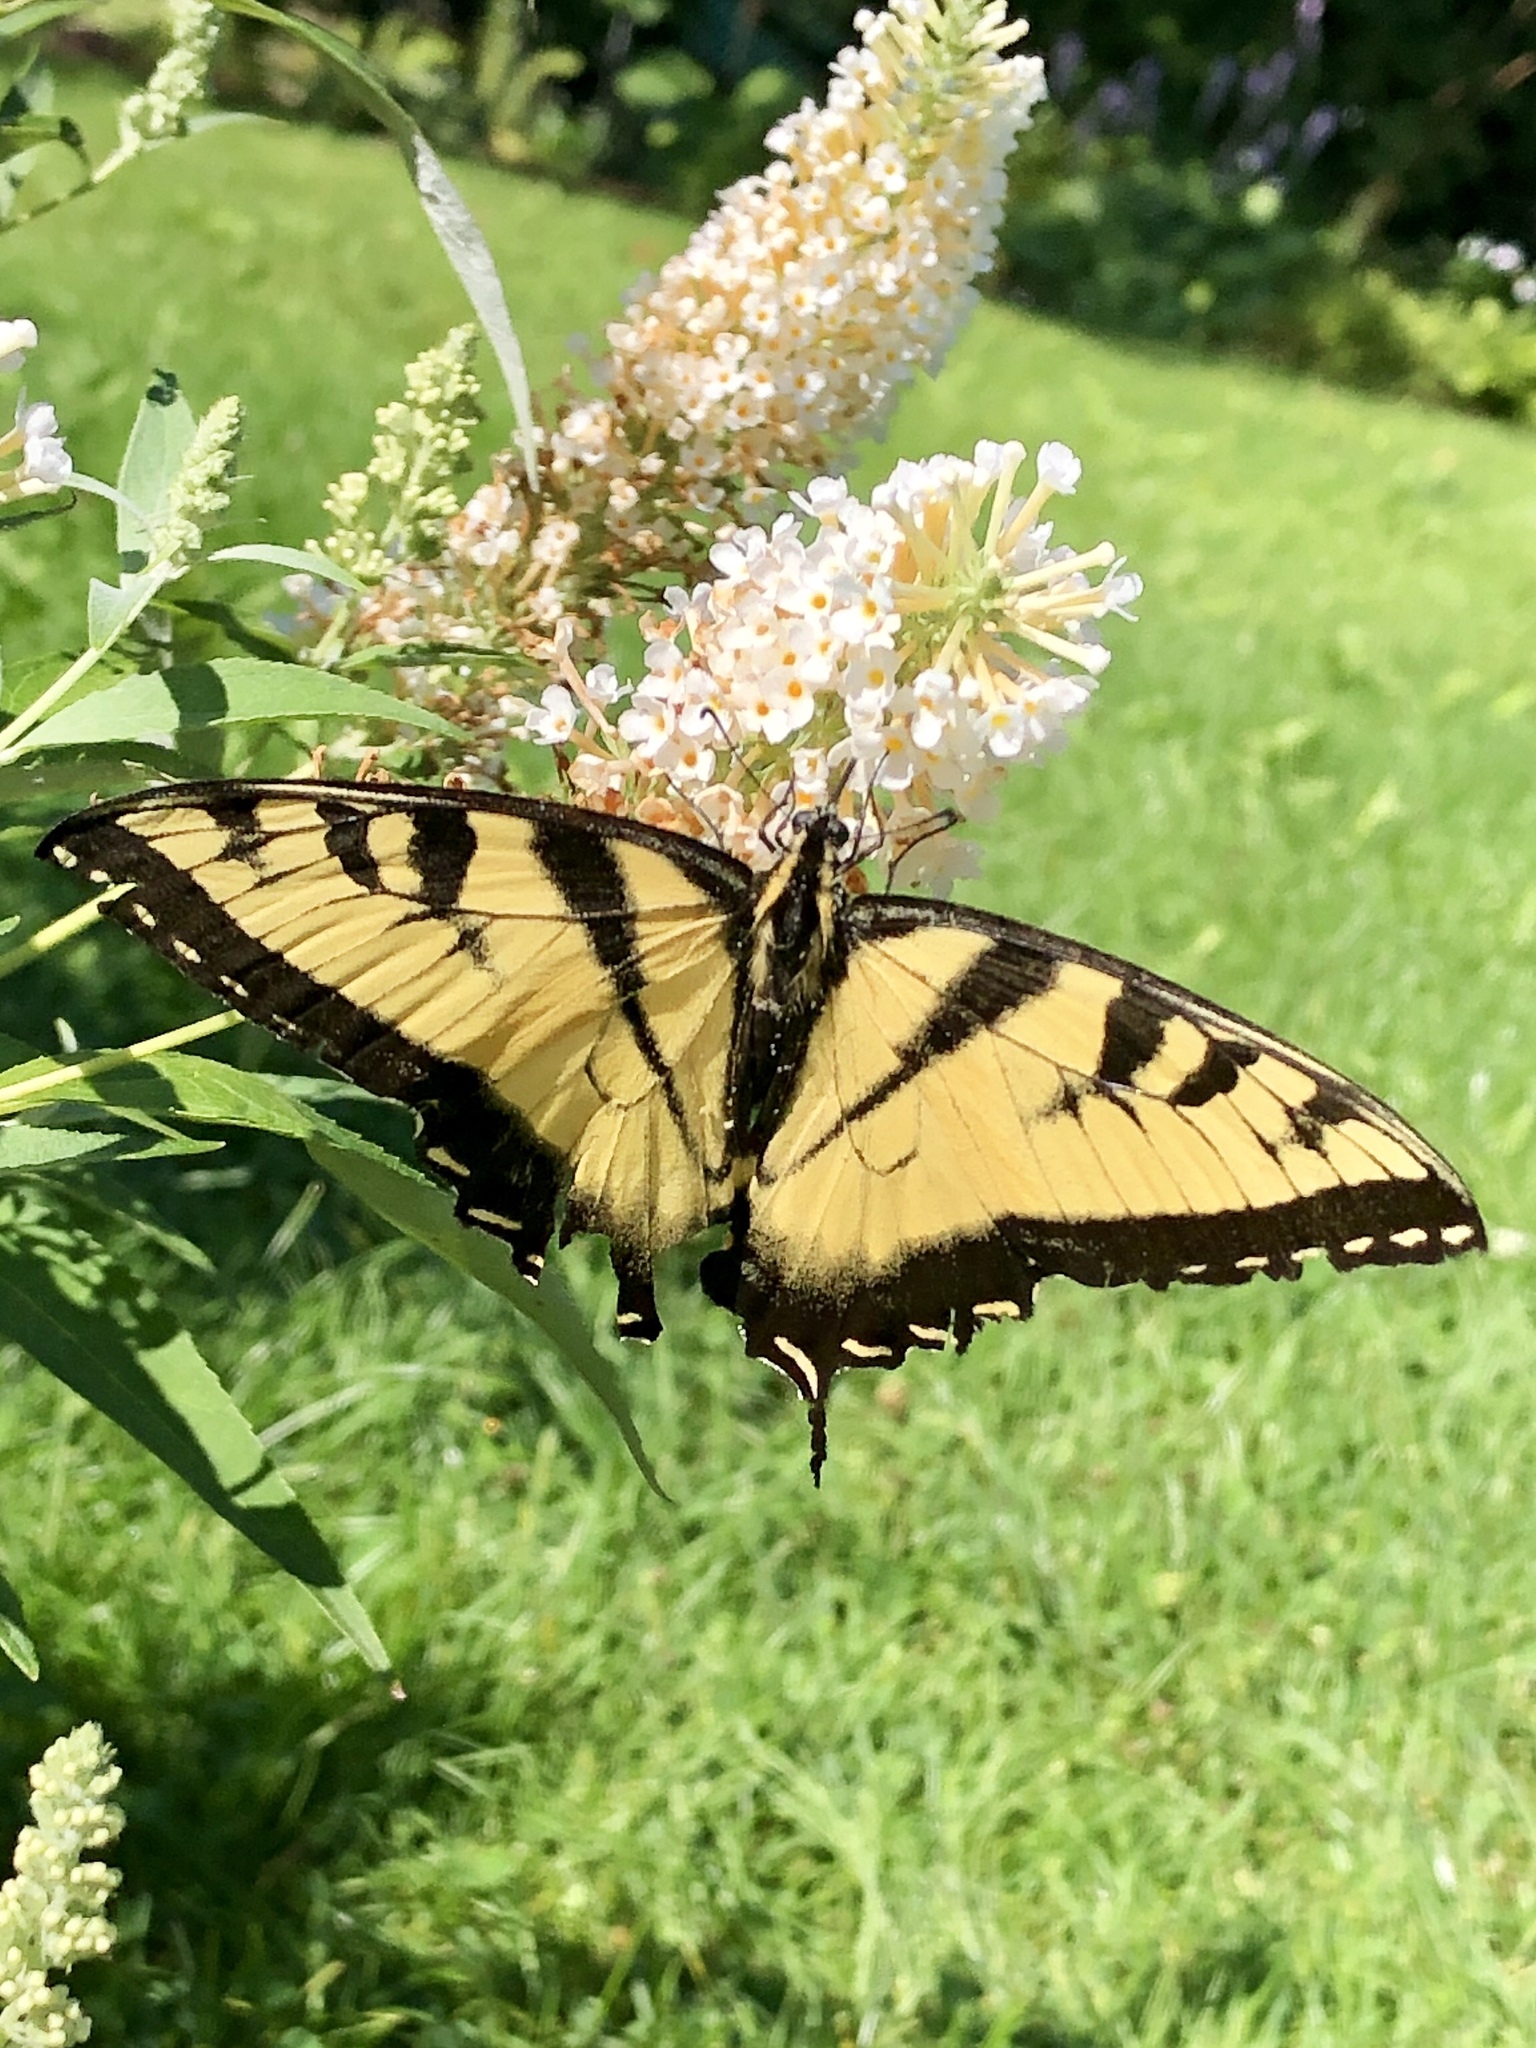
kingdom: Animalia
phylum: Arthropoda
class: Insecta
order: Lepidoptera
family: Papilionidae
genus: Papilio
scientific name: Papilio glaucus
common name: Tiger swallowtail
